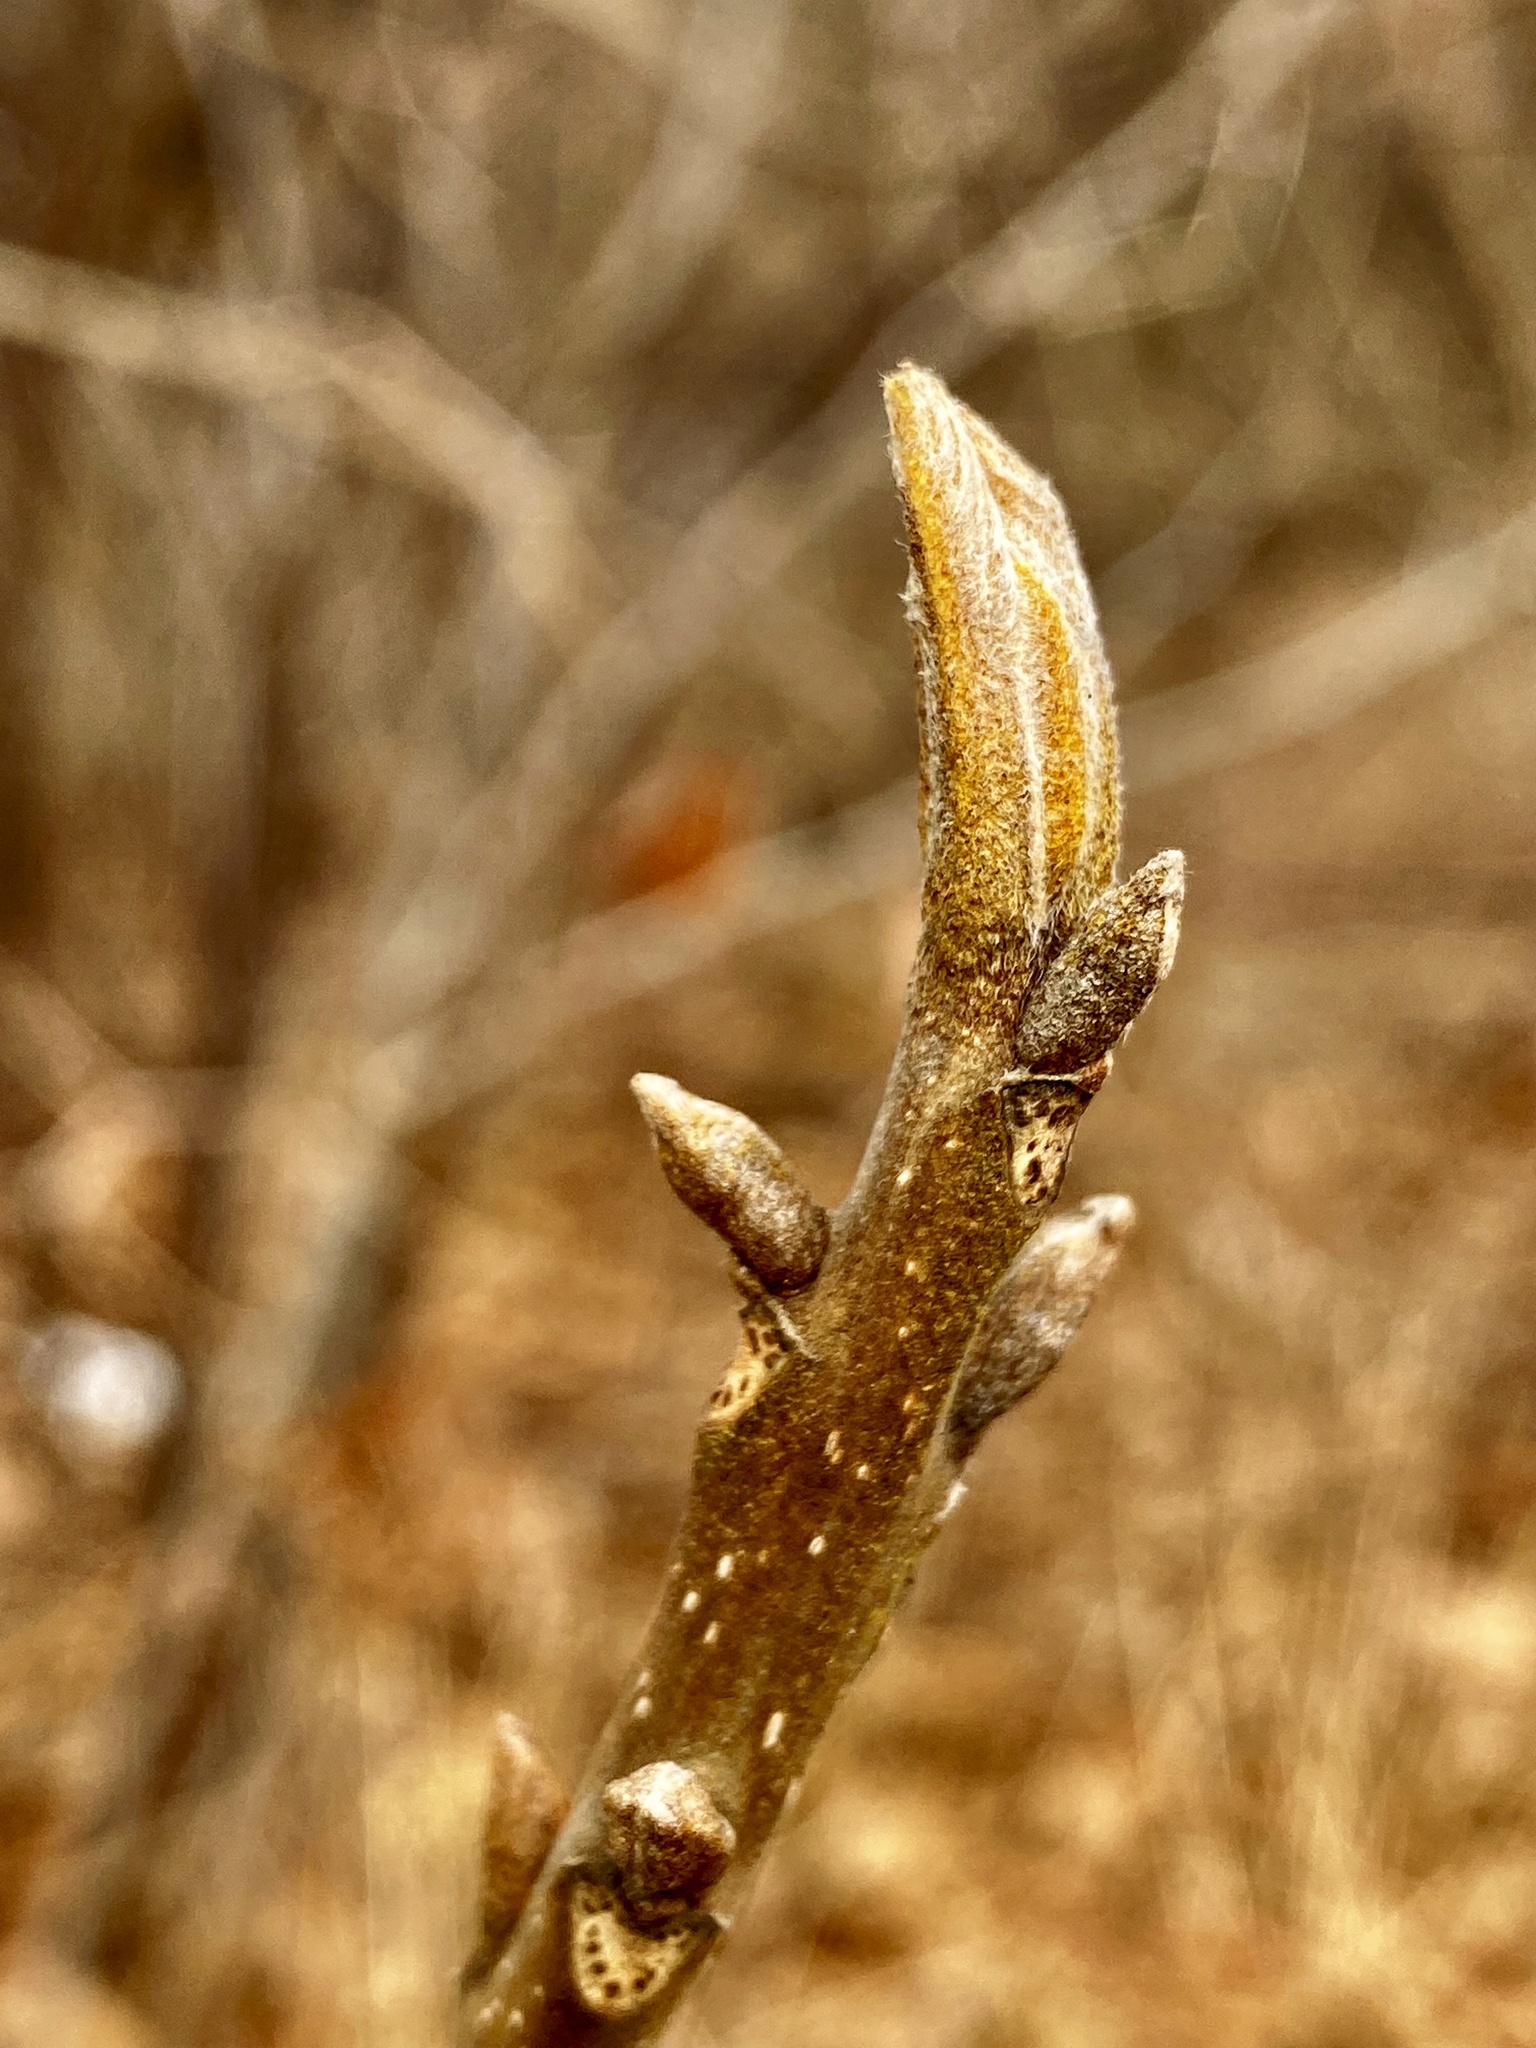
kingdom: Plantae
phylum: Tracheophyta
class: Magnoliopsida
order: Fagales
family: Juglandaceae
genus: Carya
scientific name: Carya cordiformis
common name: Bitternut hickory
